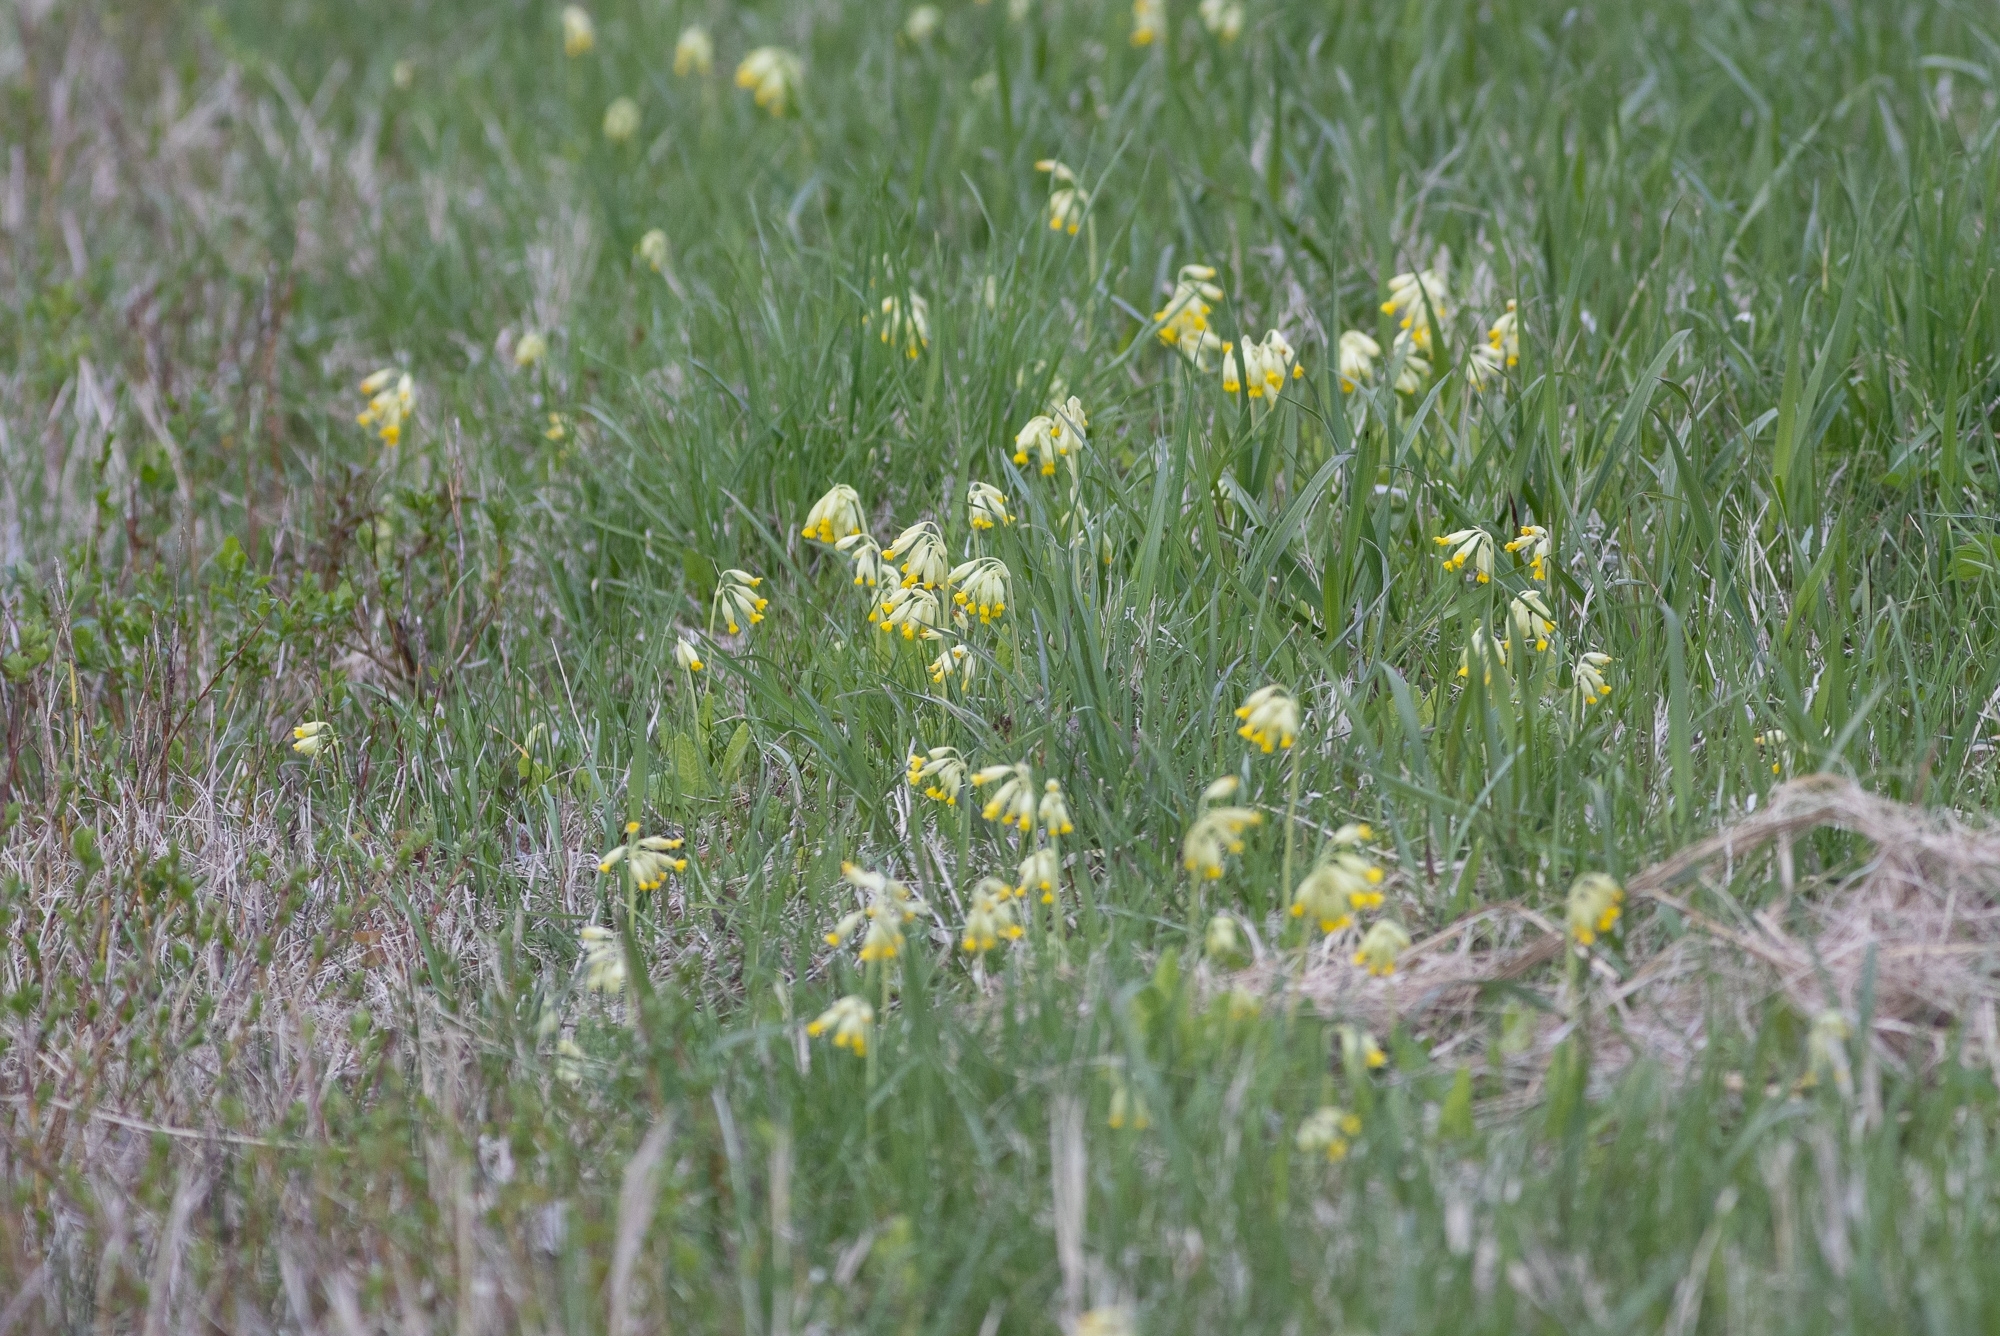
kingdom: Plantae
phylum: Tracheophyta
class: Magnoliopsida
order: Ericales
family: Primulaceae
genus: Primula
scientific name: Primula veris
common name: Cowslip
